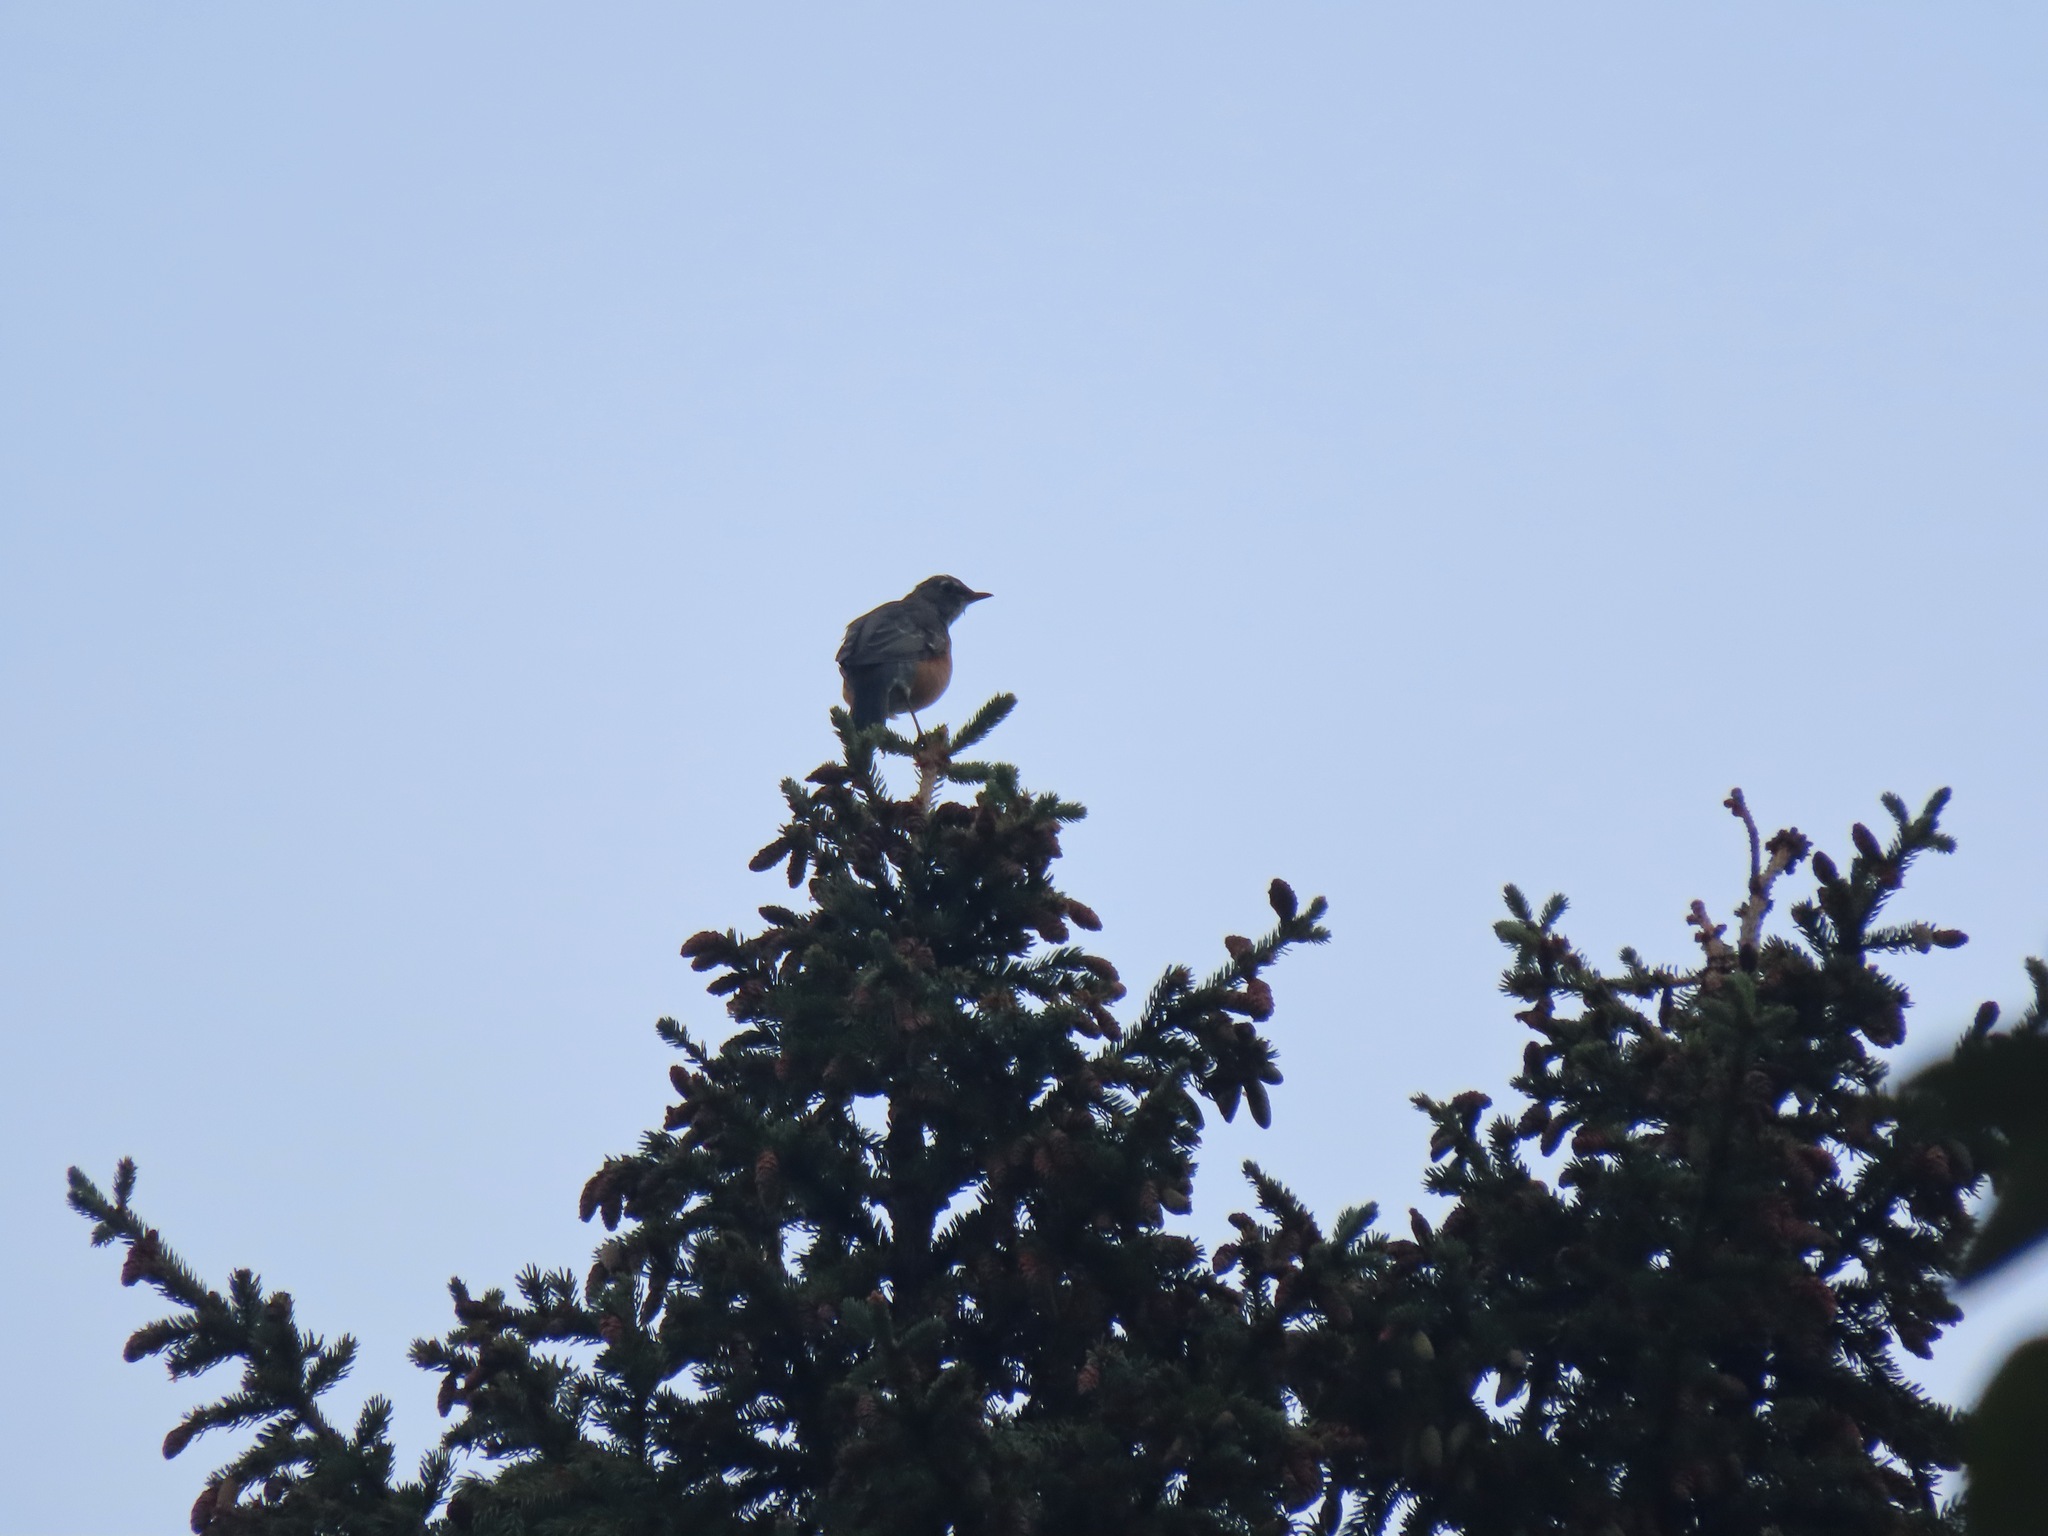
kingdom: Animalia
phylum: Chordata
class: Aves
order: Passeriformes
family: Turdidae
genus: Turdus
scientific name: Turdus migratorius
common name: American robin
